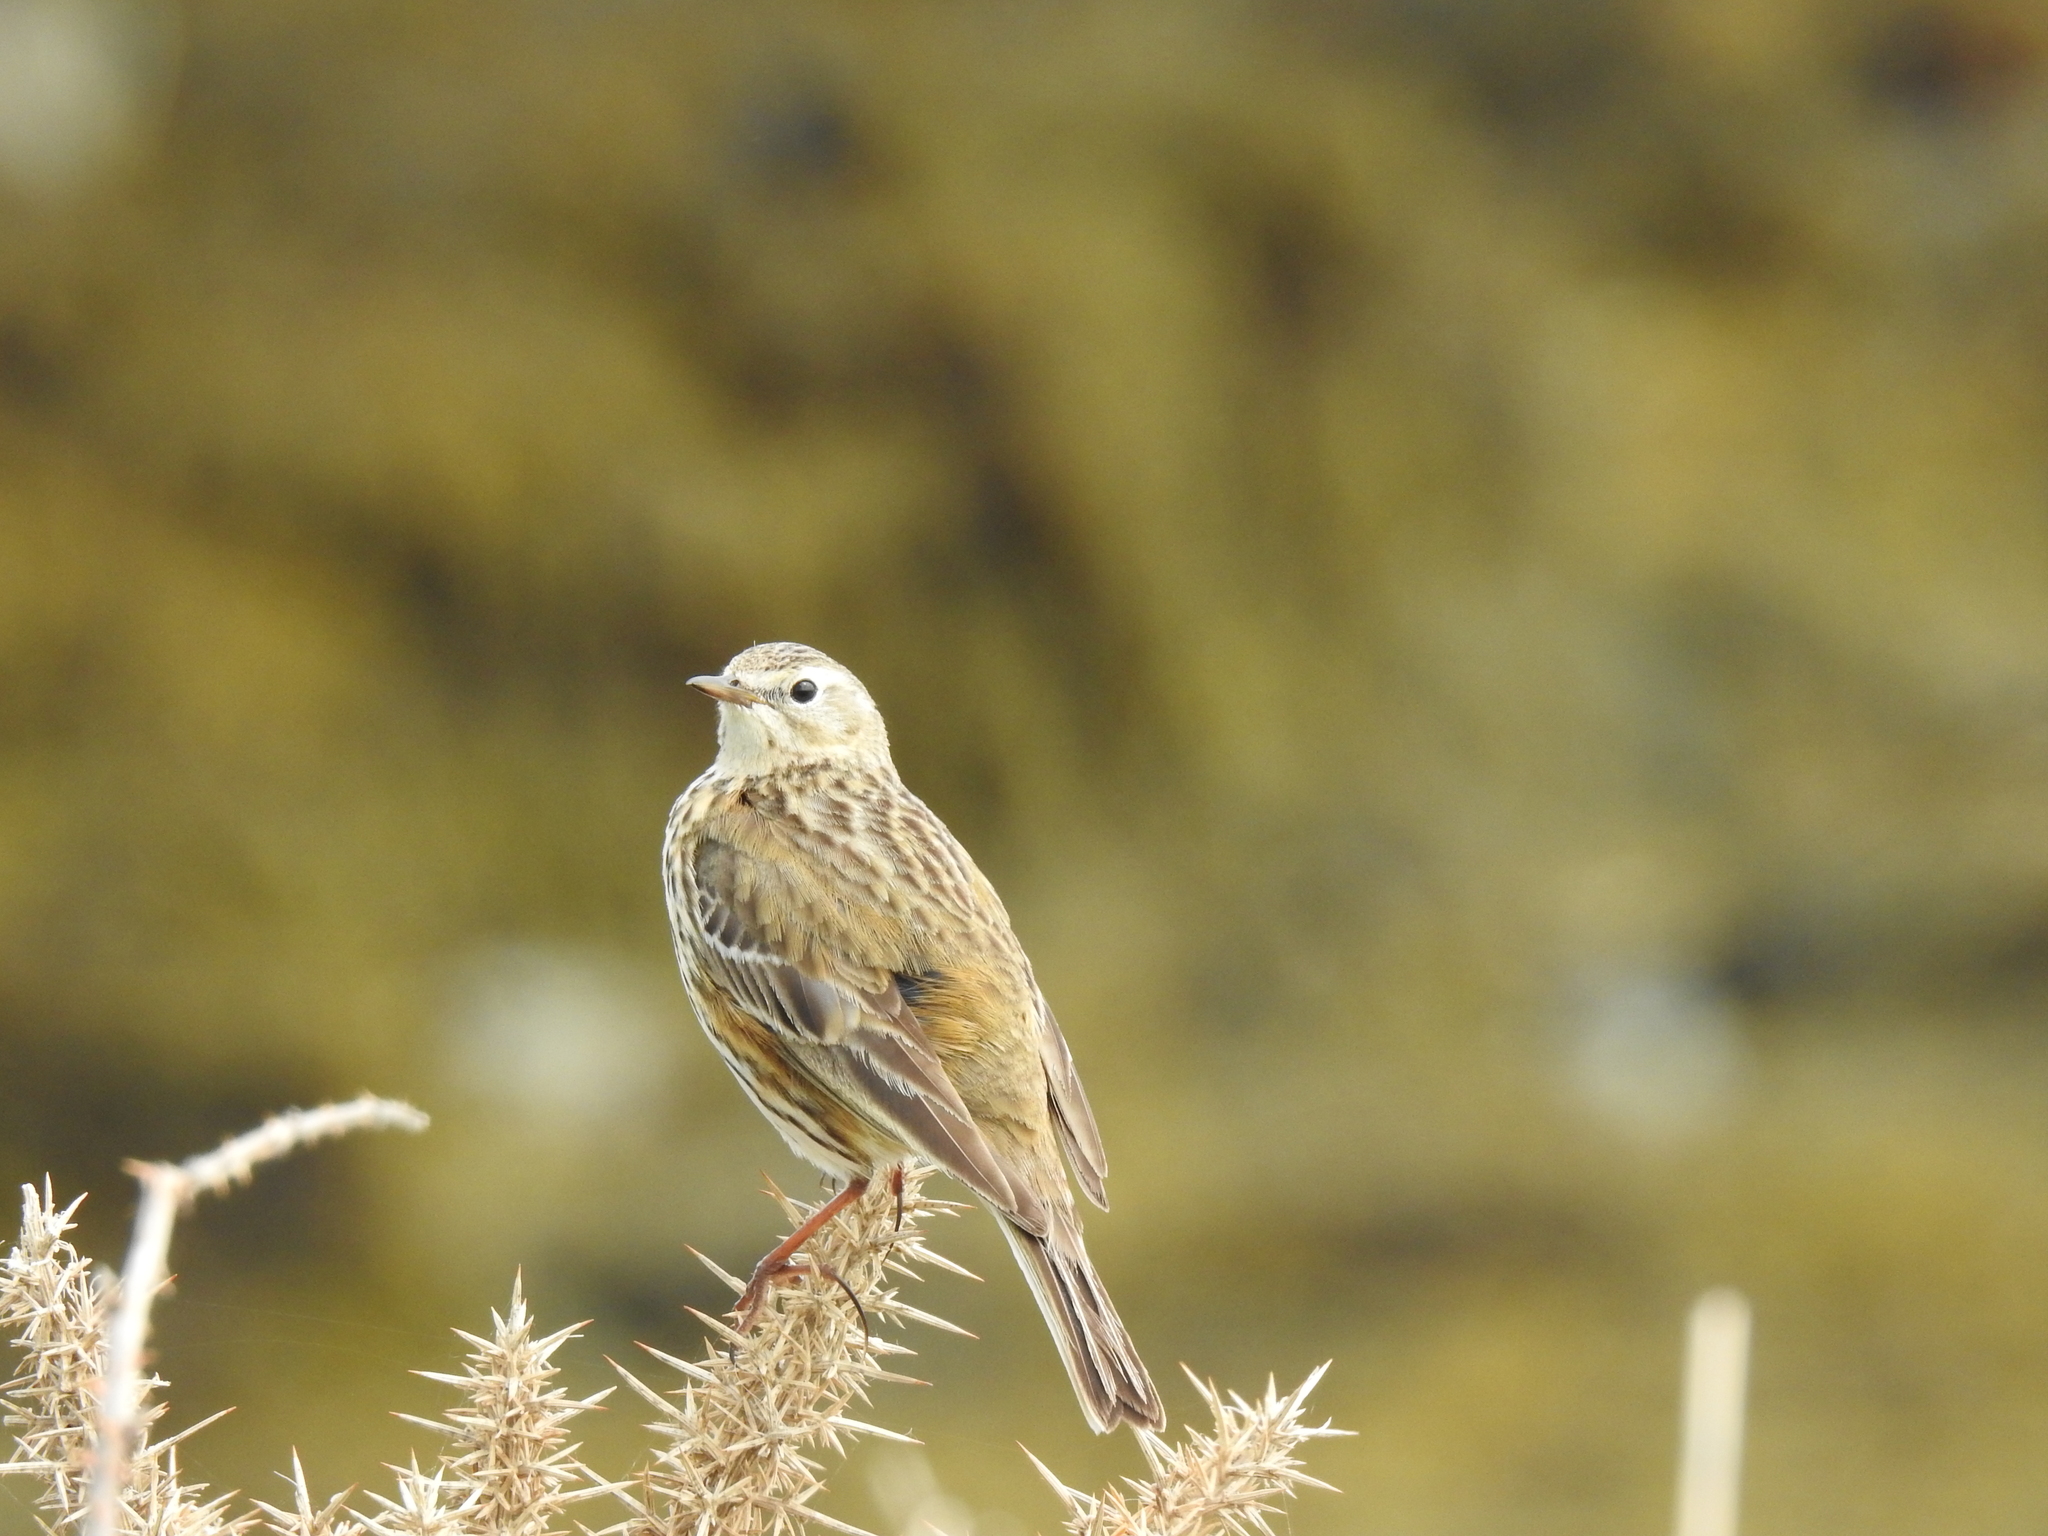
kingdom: Animalia
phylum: Chordata
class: Aves
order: Passeriformes
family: Motacillidae
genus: Anthus
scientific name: Anthus pratensis
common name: Meadow pipit
